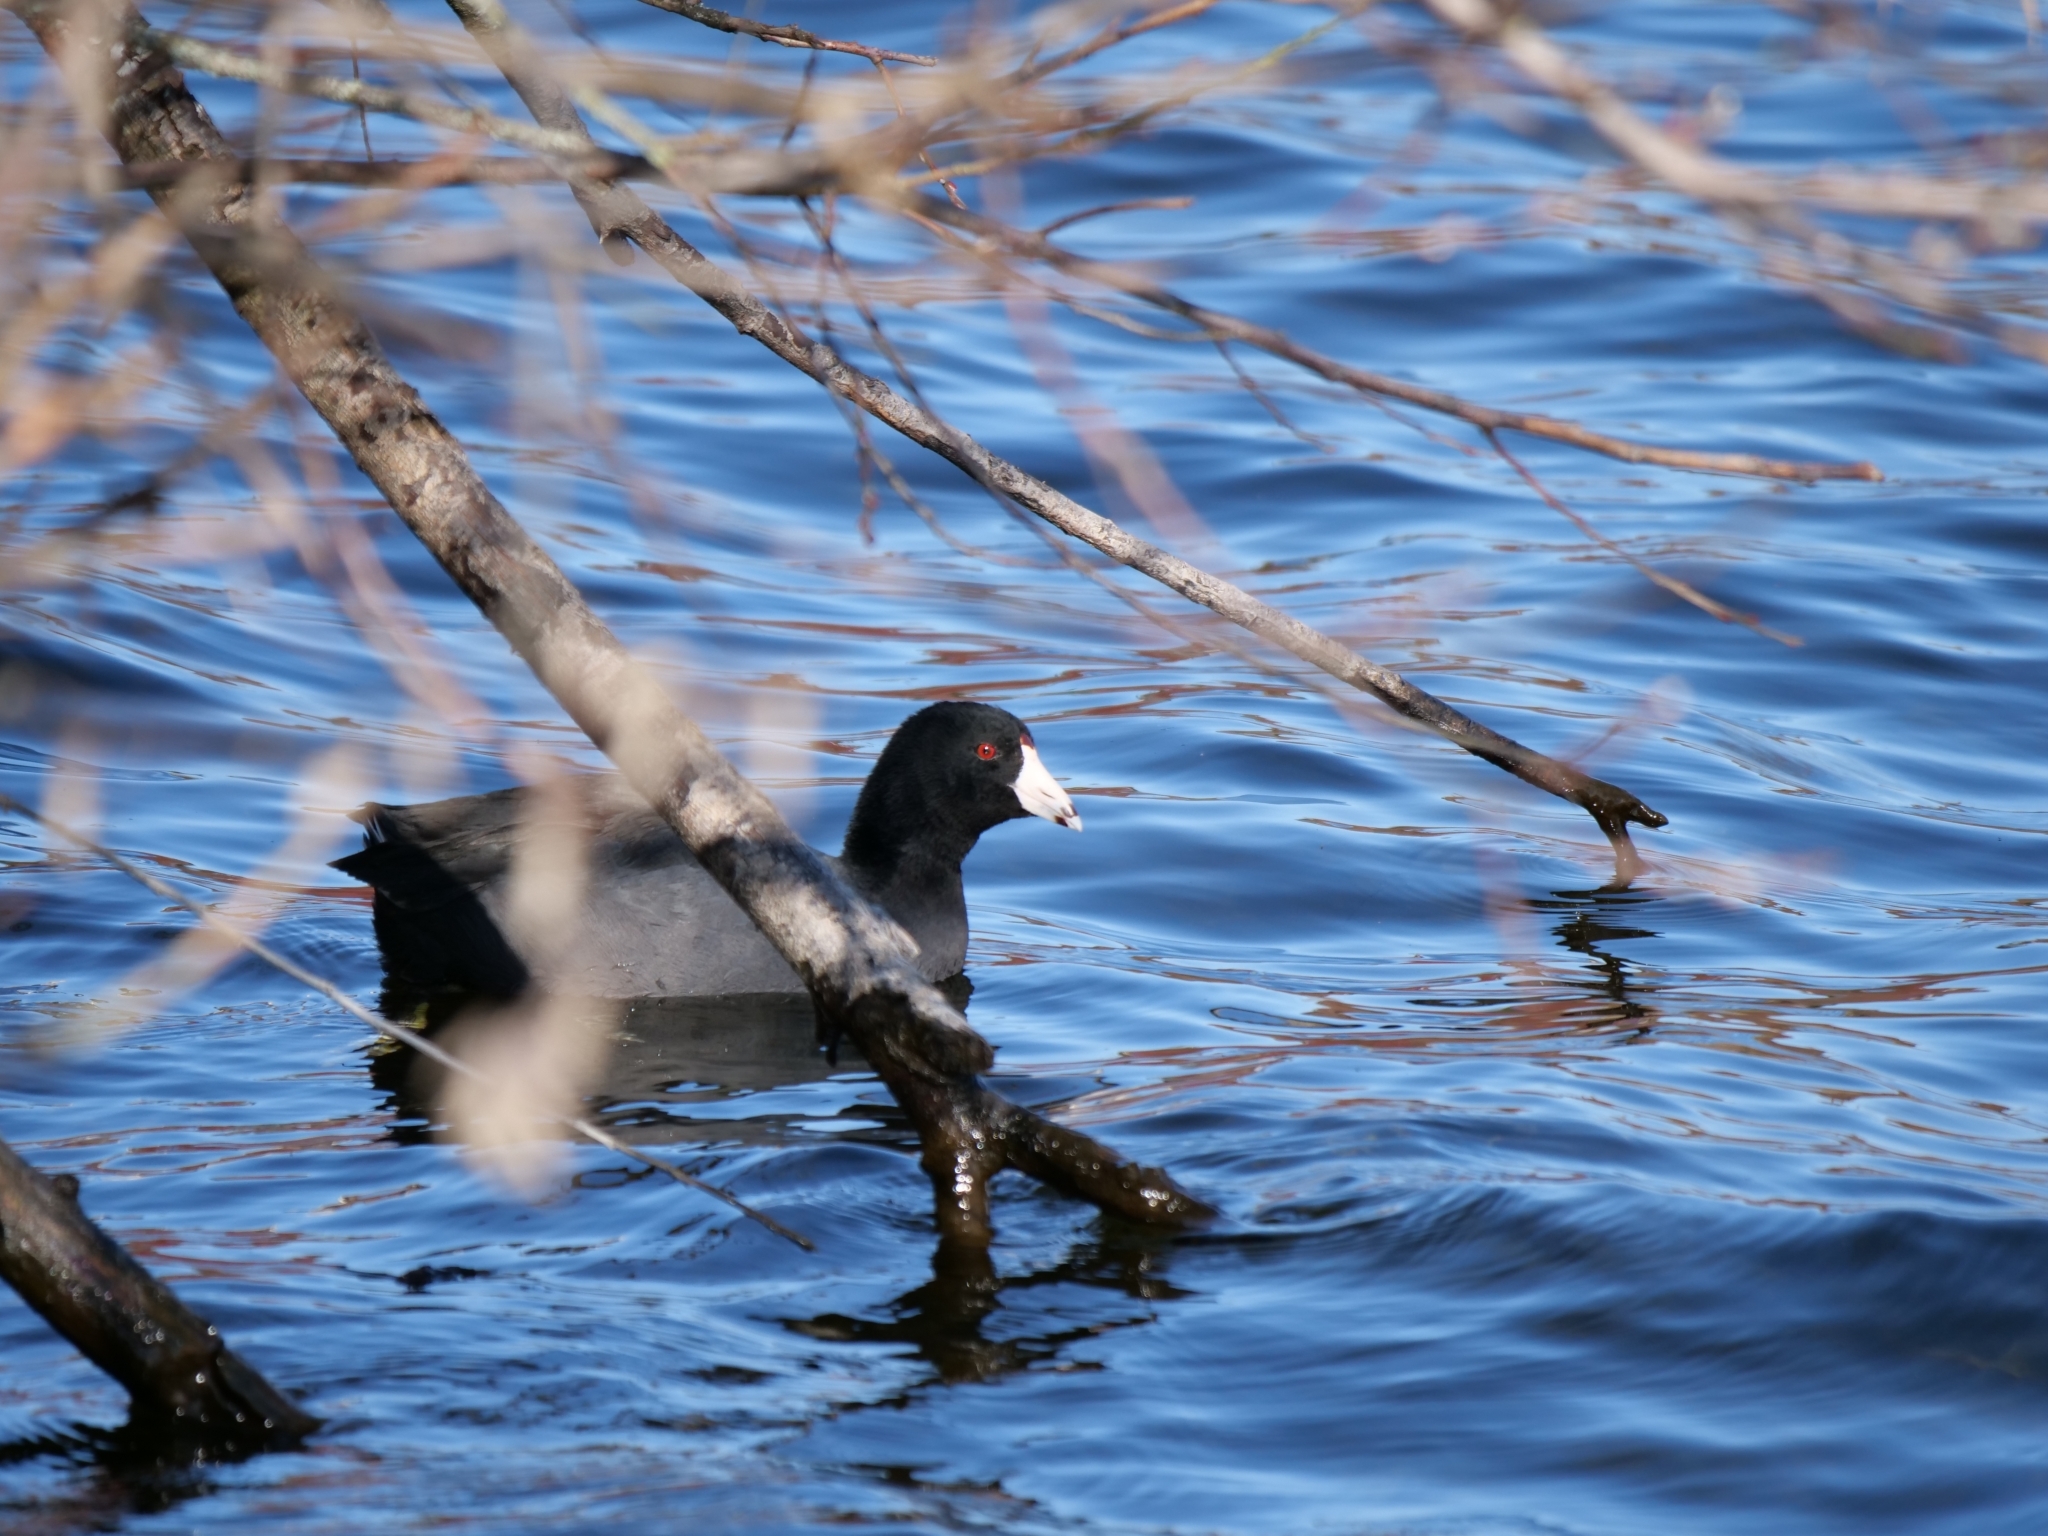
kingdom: Animalia
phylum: Chordata
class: Aves
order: Gruiformes
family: Rallidae
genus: Fulica
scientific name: Fulica americana
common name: American coot
